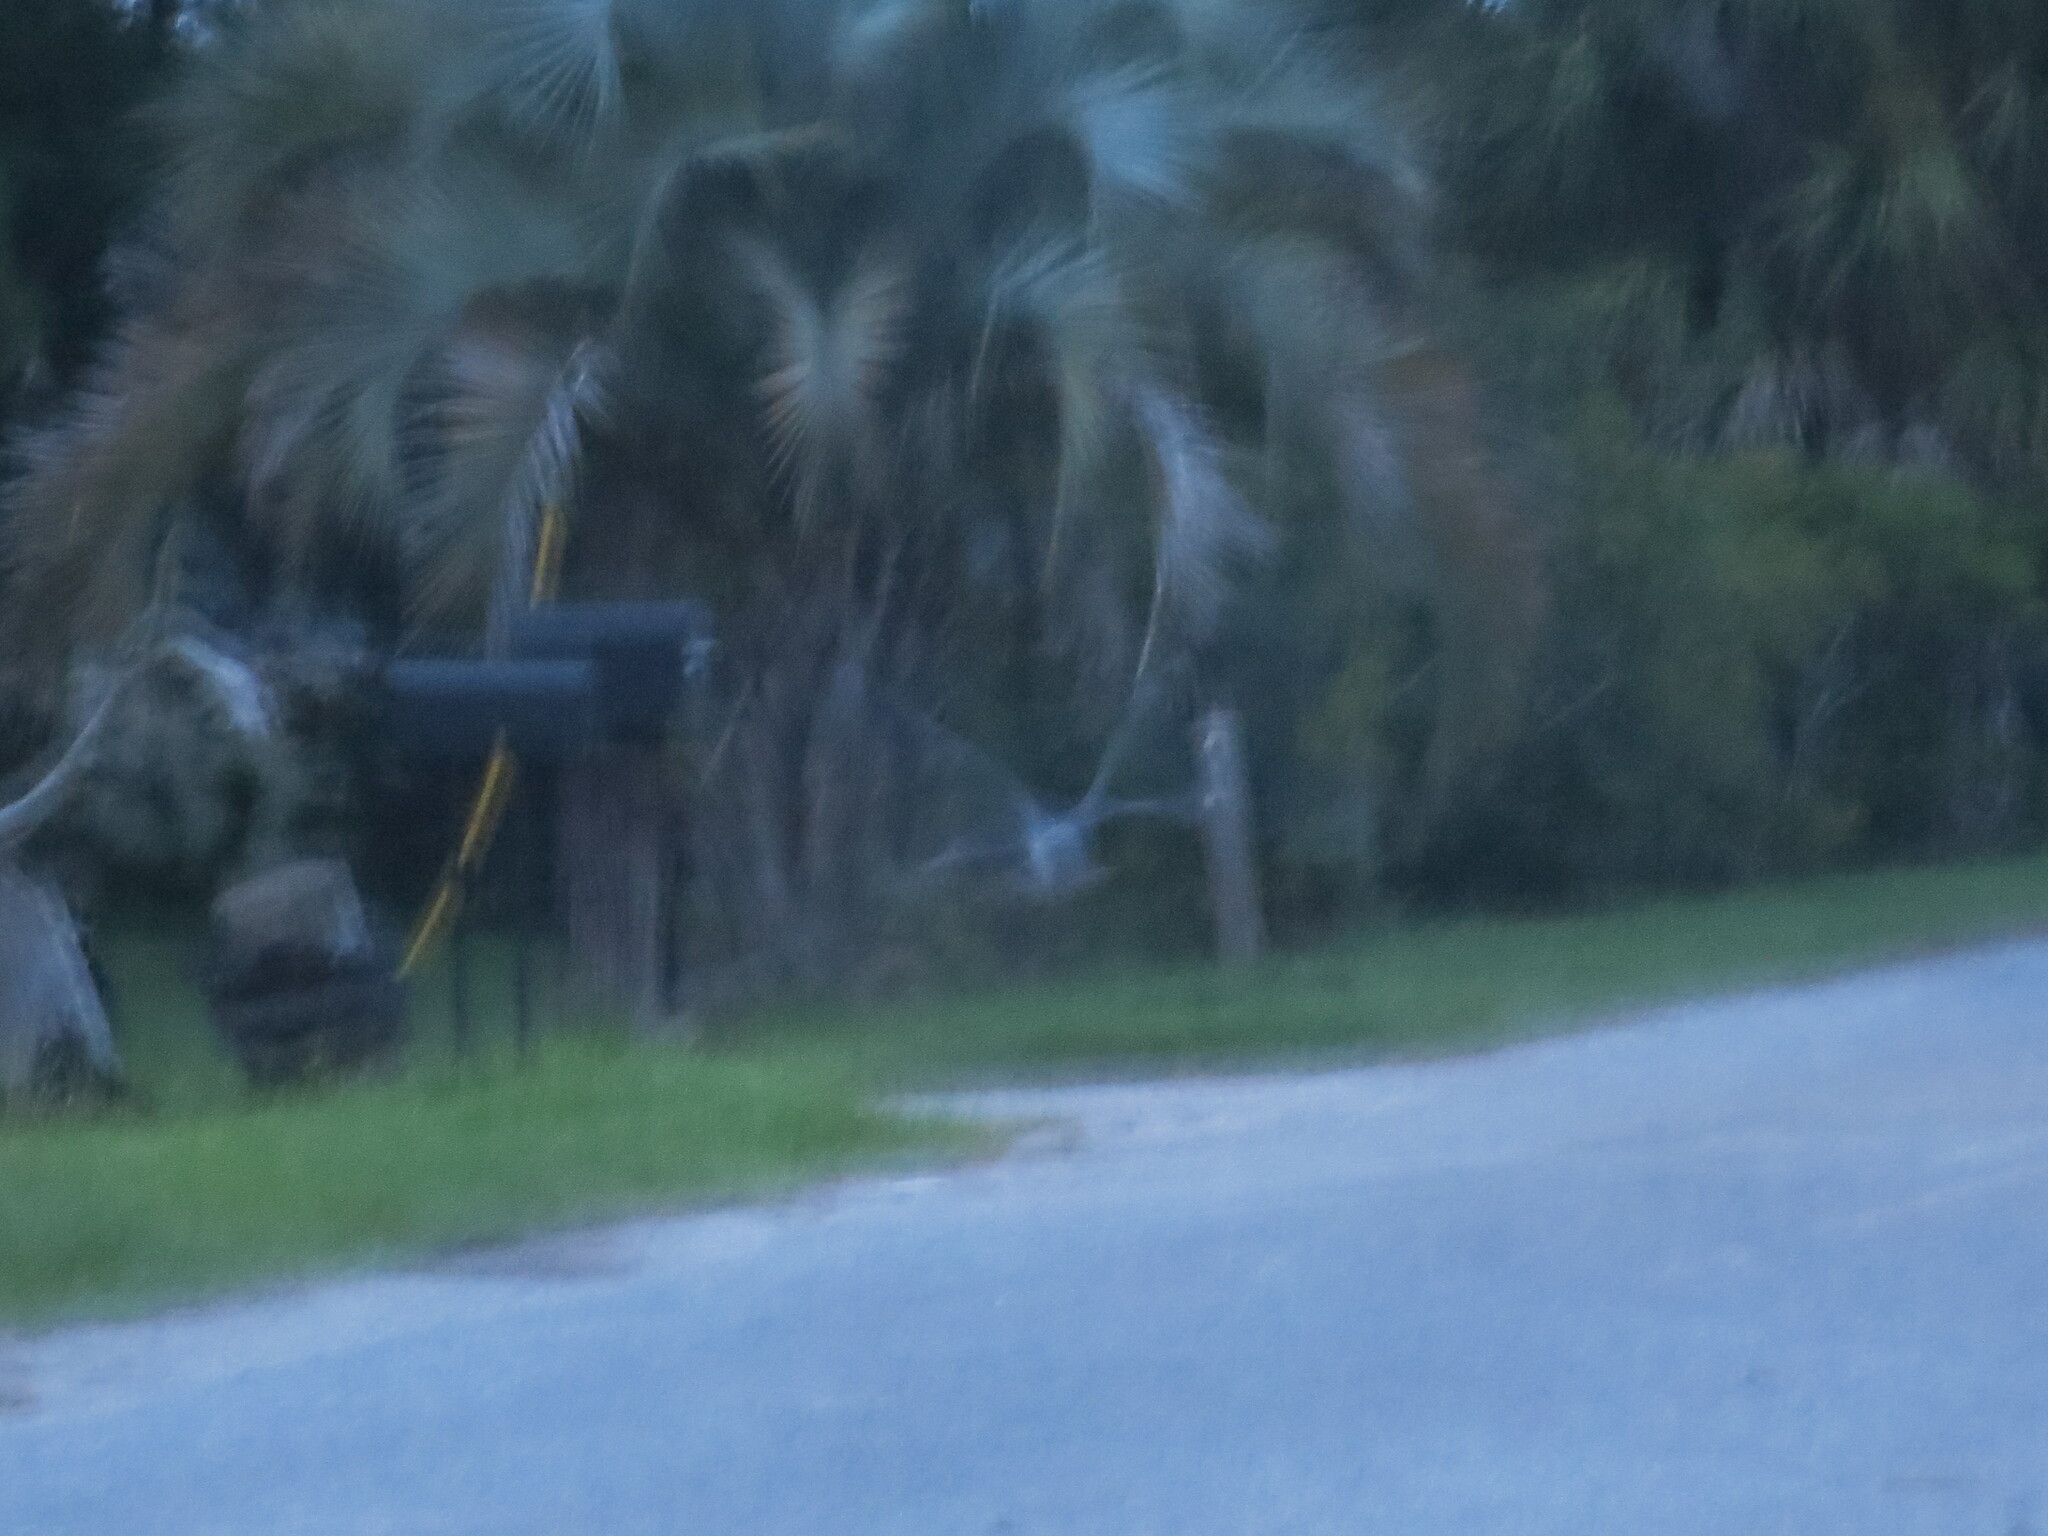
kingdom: Animalia
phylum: Chordata
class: Aves
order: Pelecaniformes
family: Ardeidae
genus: Nyctanassa
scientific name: Nyctanassa violacea
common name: Yellow-crowned night heron
